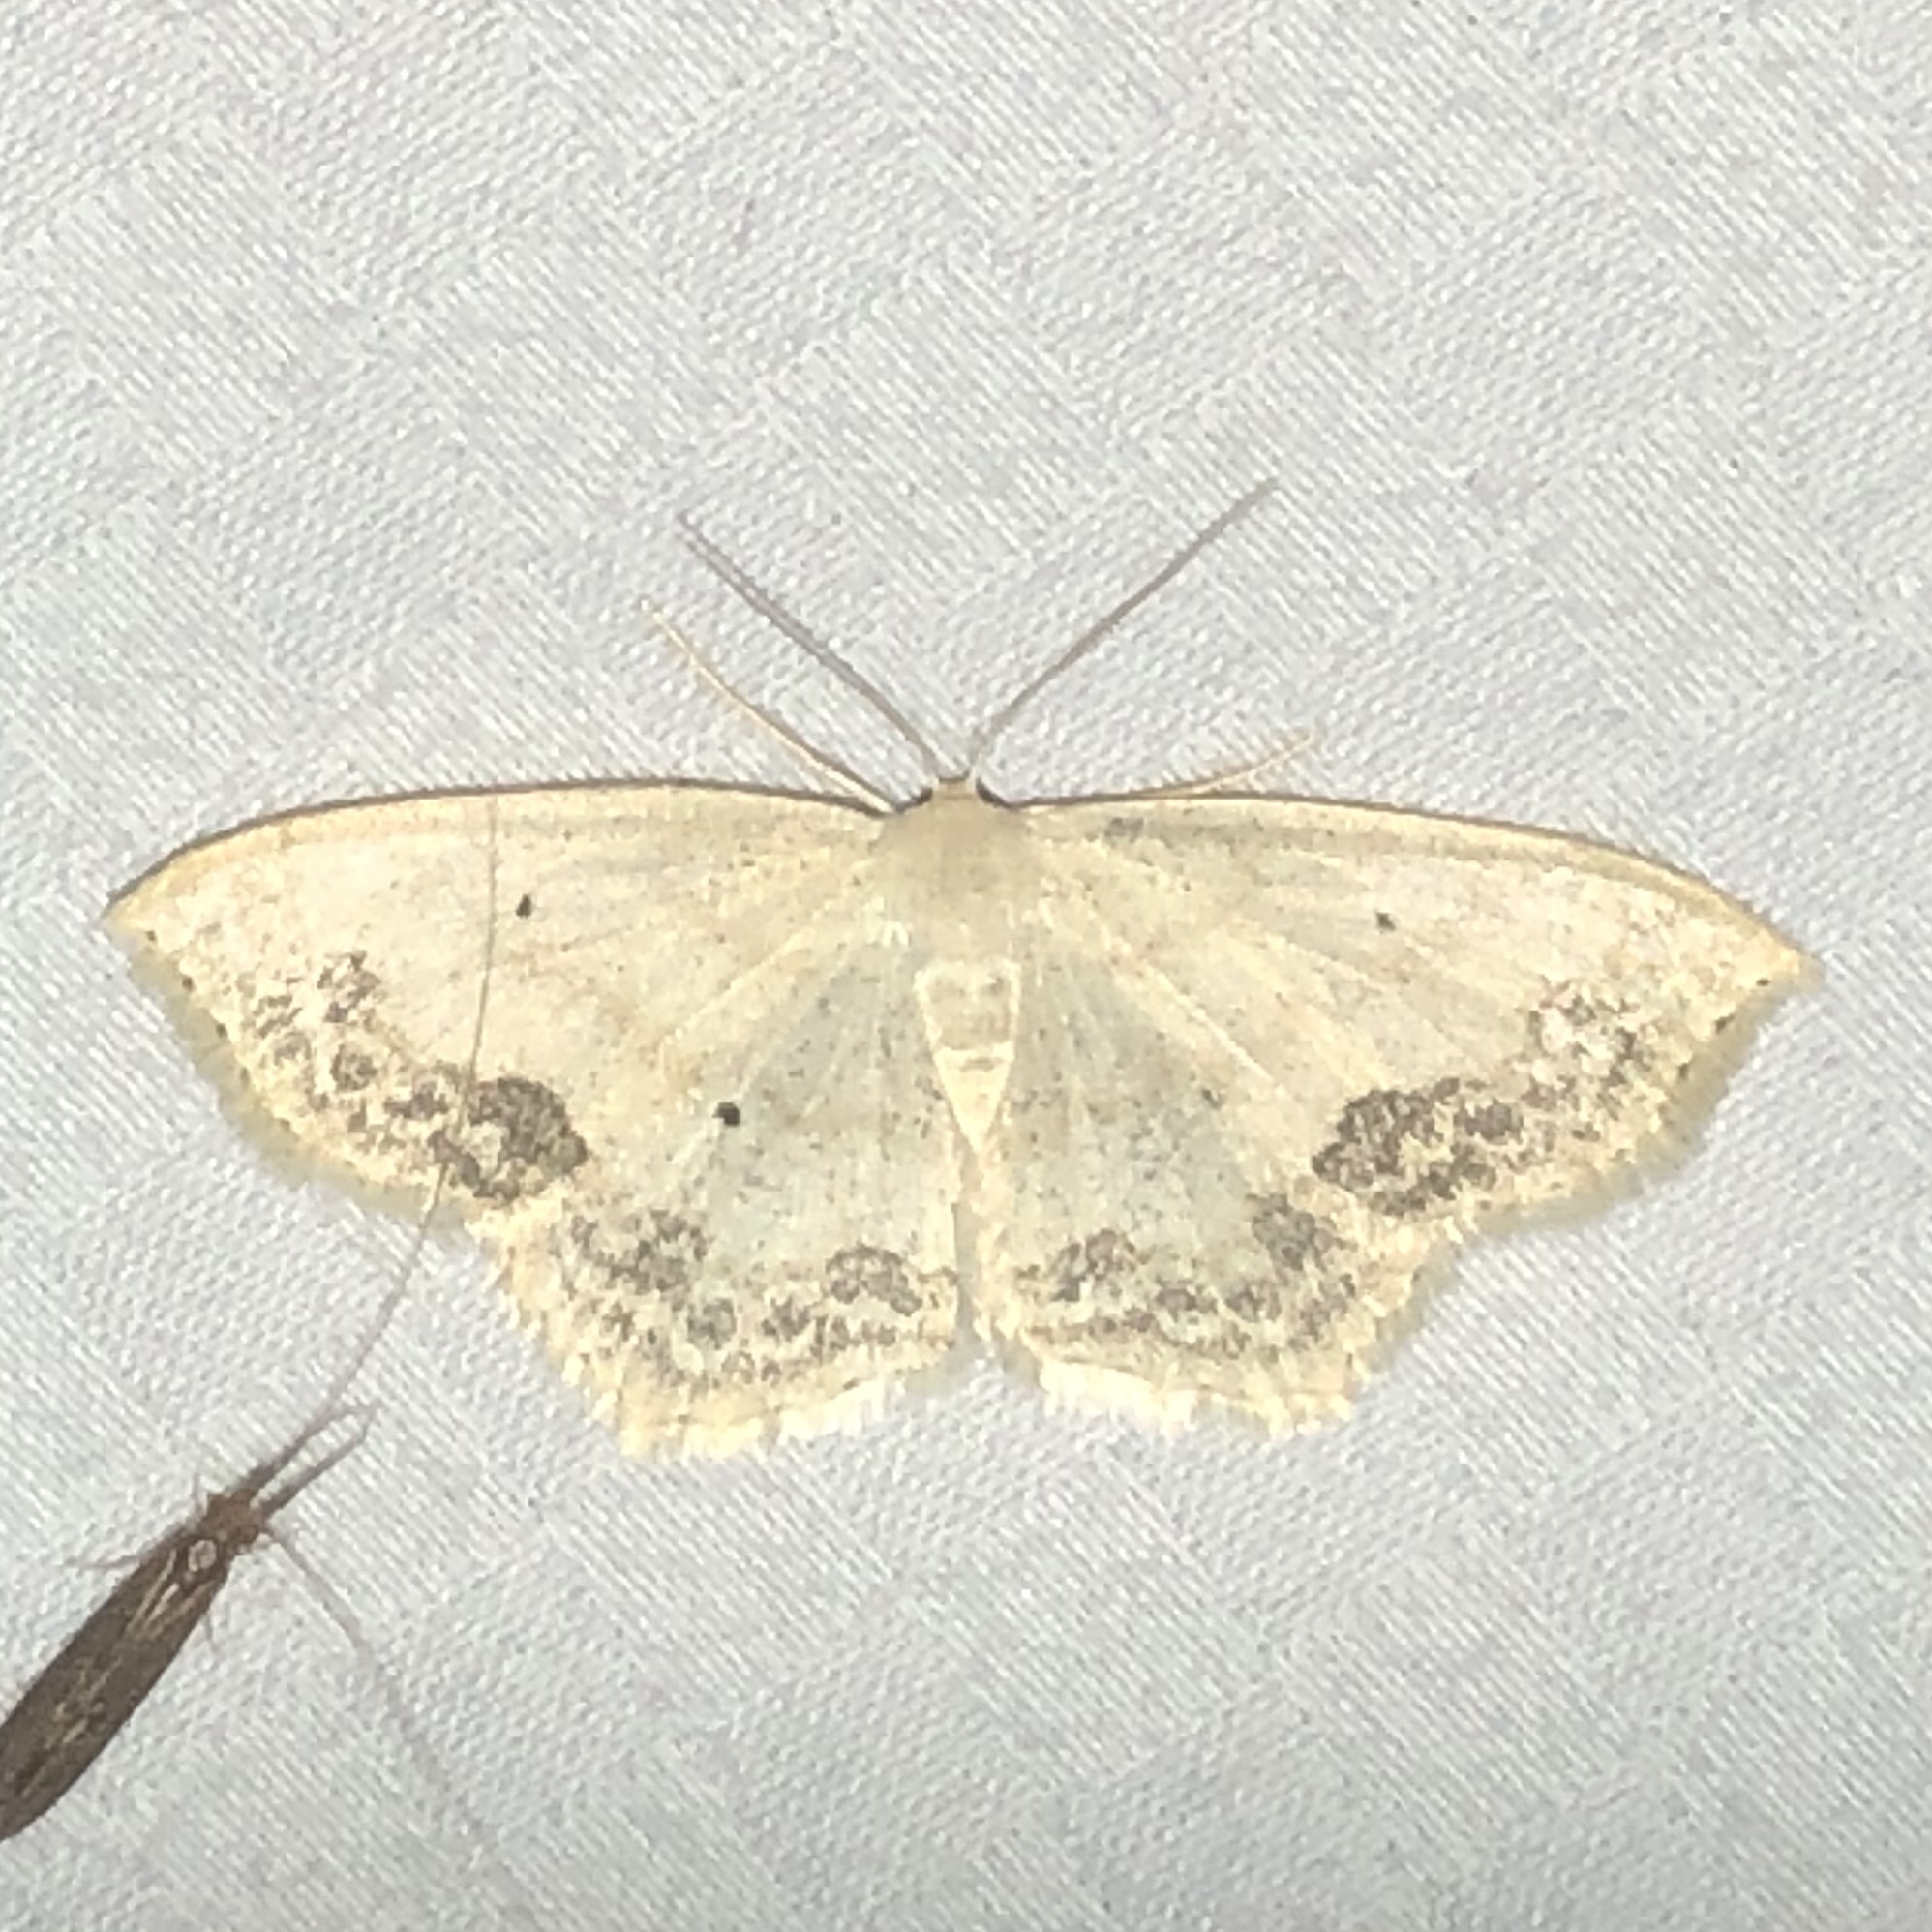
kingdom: Animalia
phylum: Arthropoda
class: Insecta
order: Lepidoptera
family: Geometridae
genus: Scopula
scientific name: Scopula limboundata
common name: Large lace border
